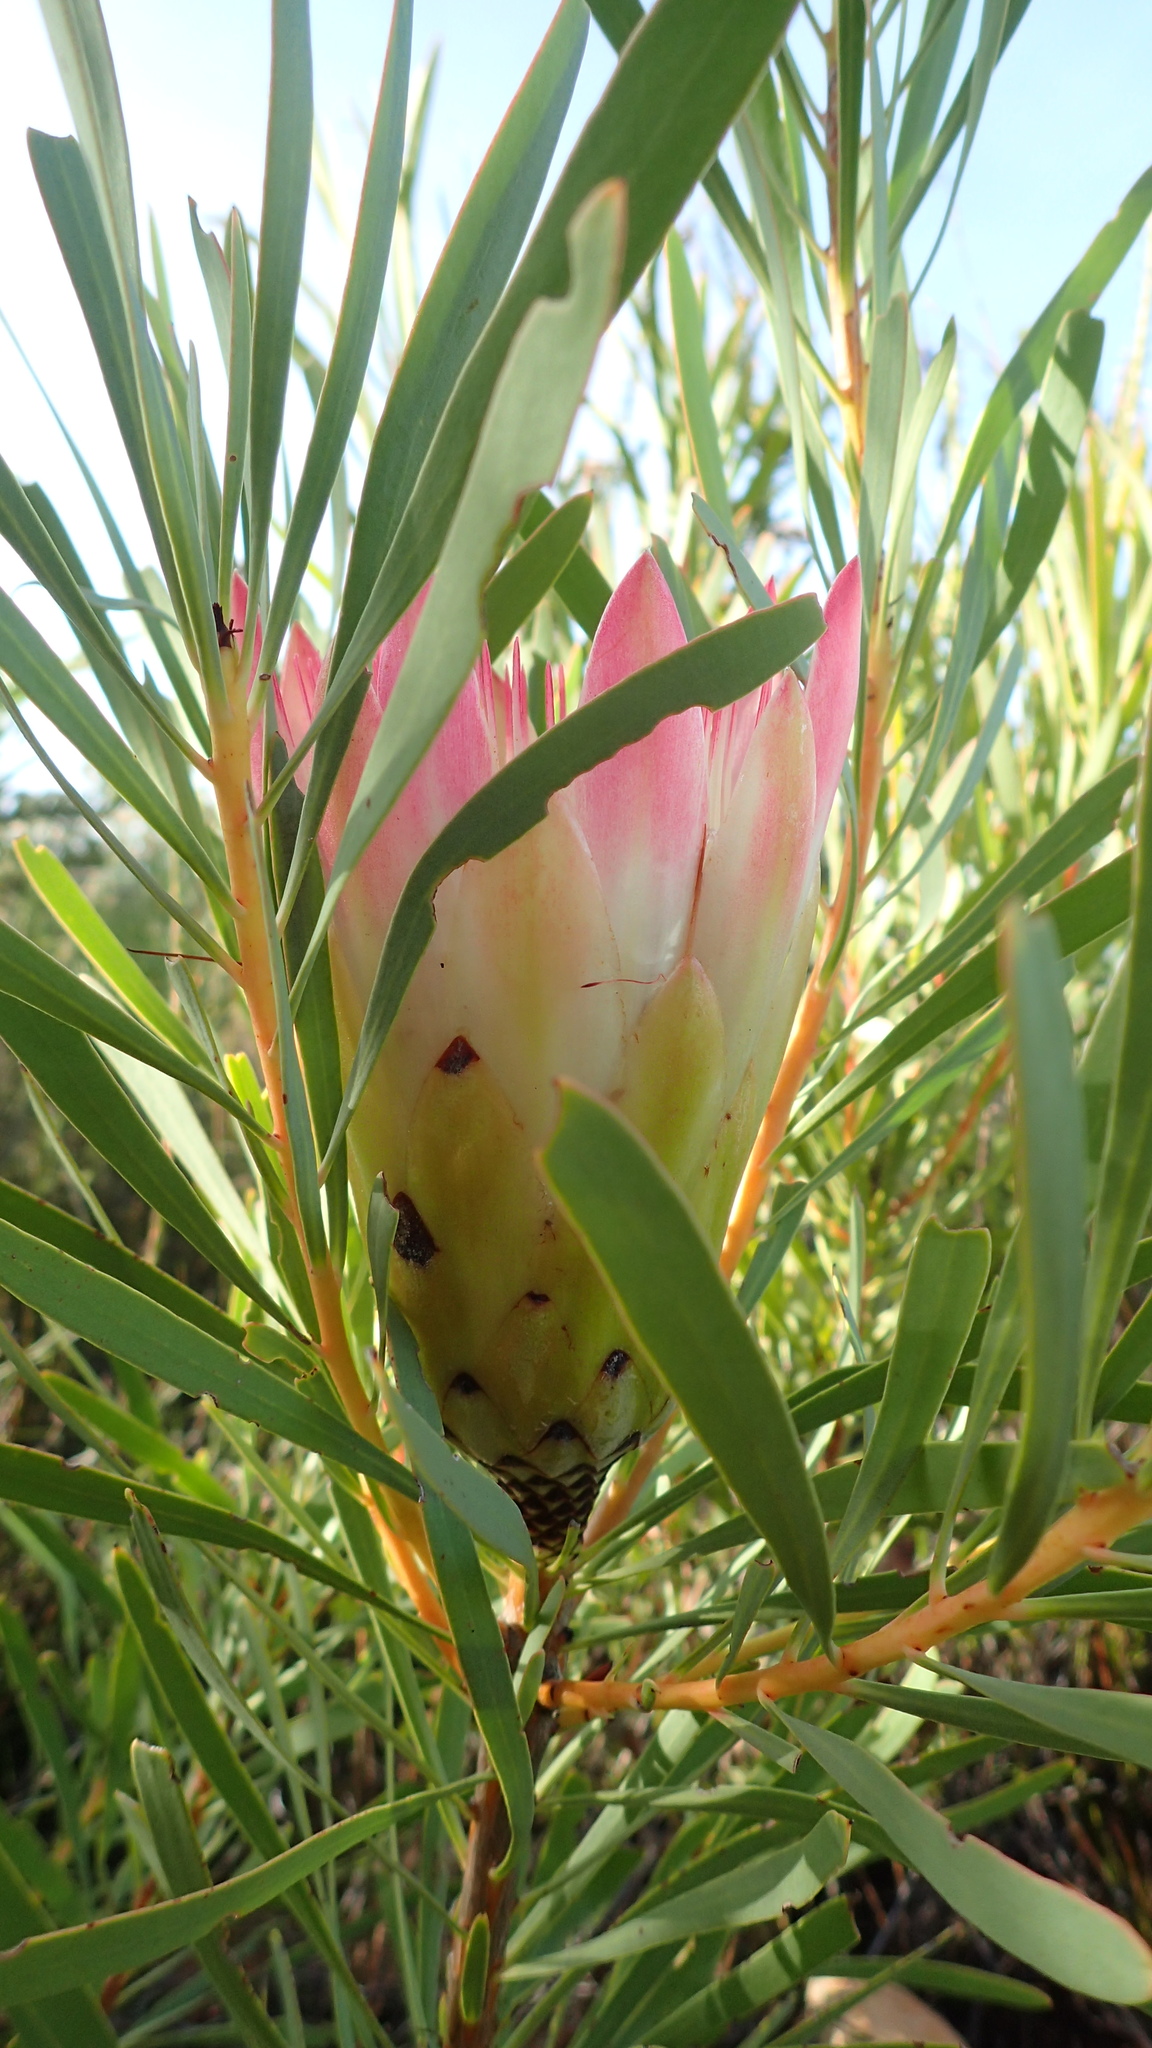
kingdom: Plantae
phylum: Tracheophyta
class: Magnoliopsida
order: Proteales
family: Proteaceae
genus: Protea
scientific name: Protea repens
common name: Sugarbush
